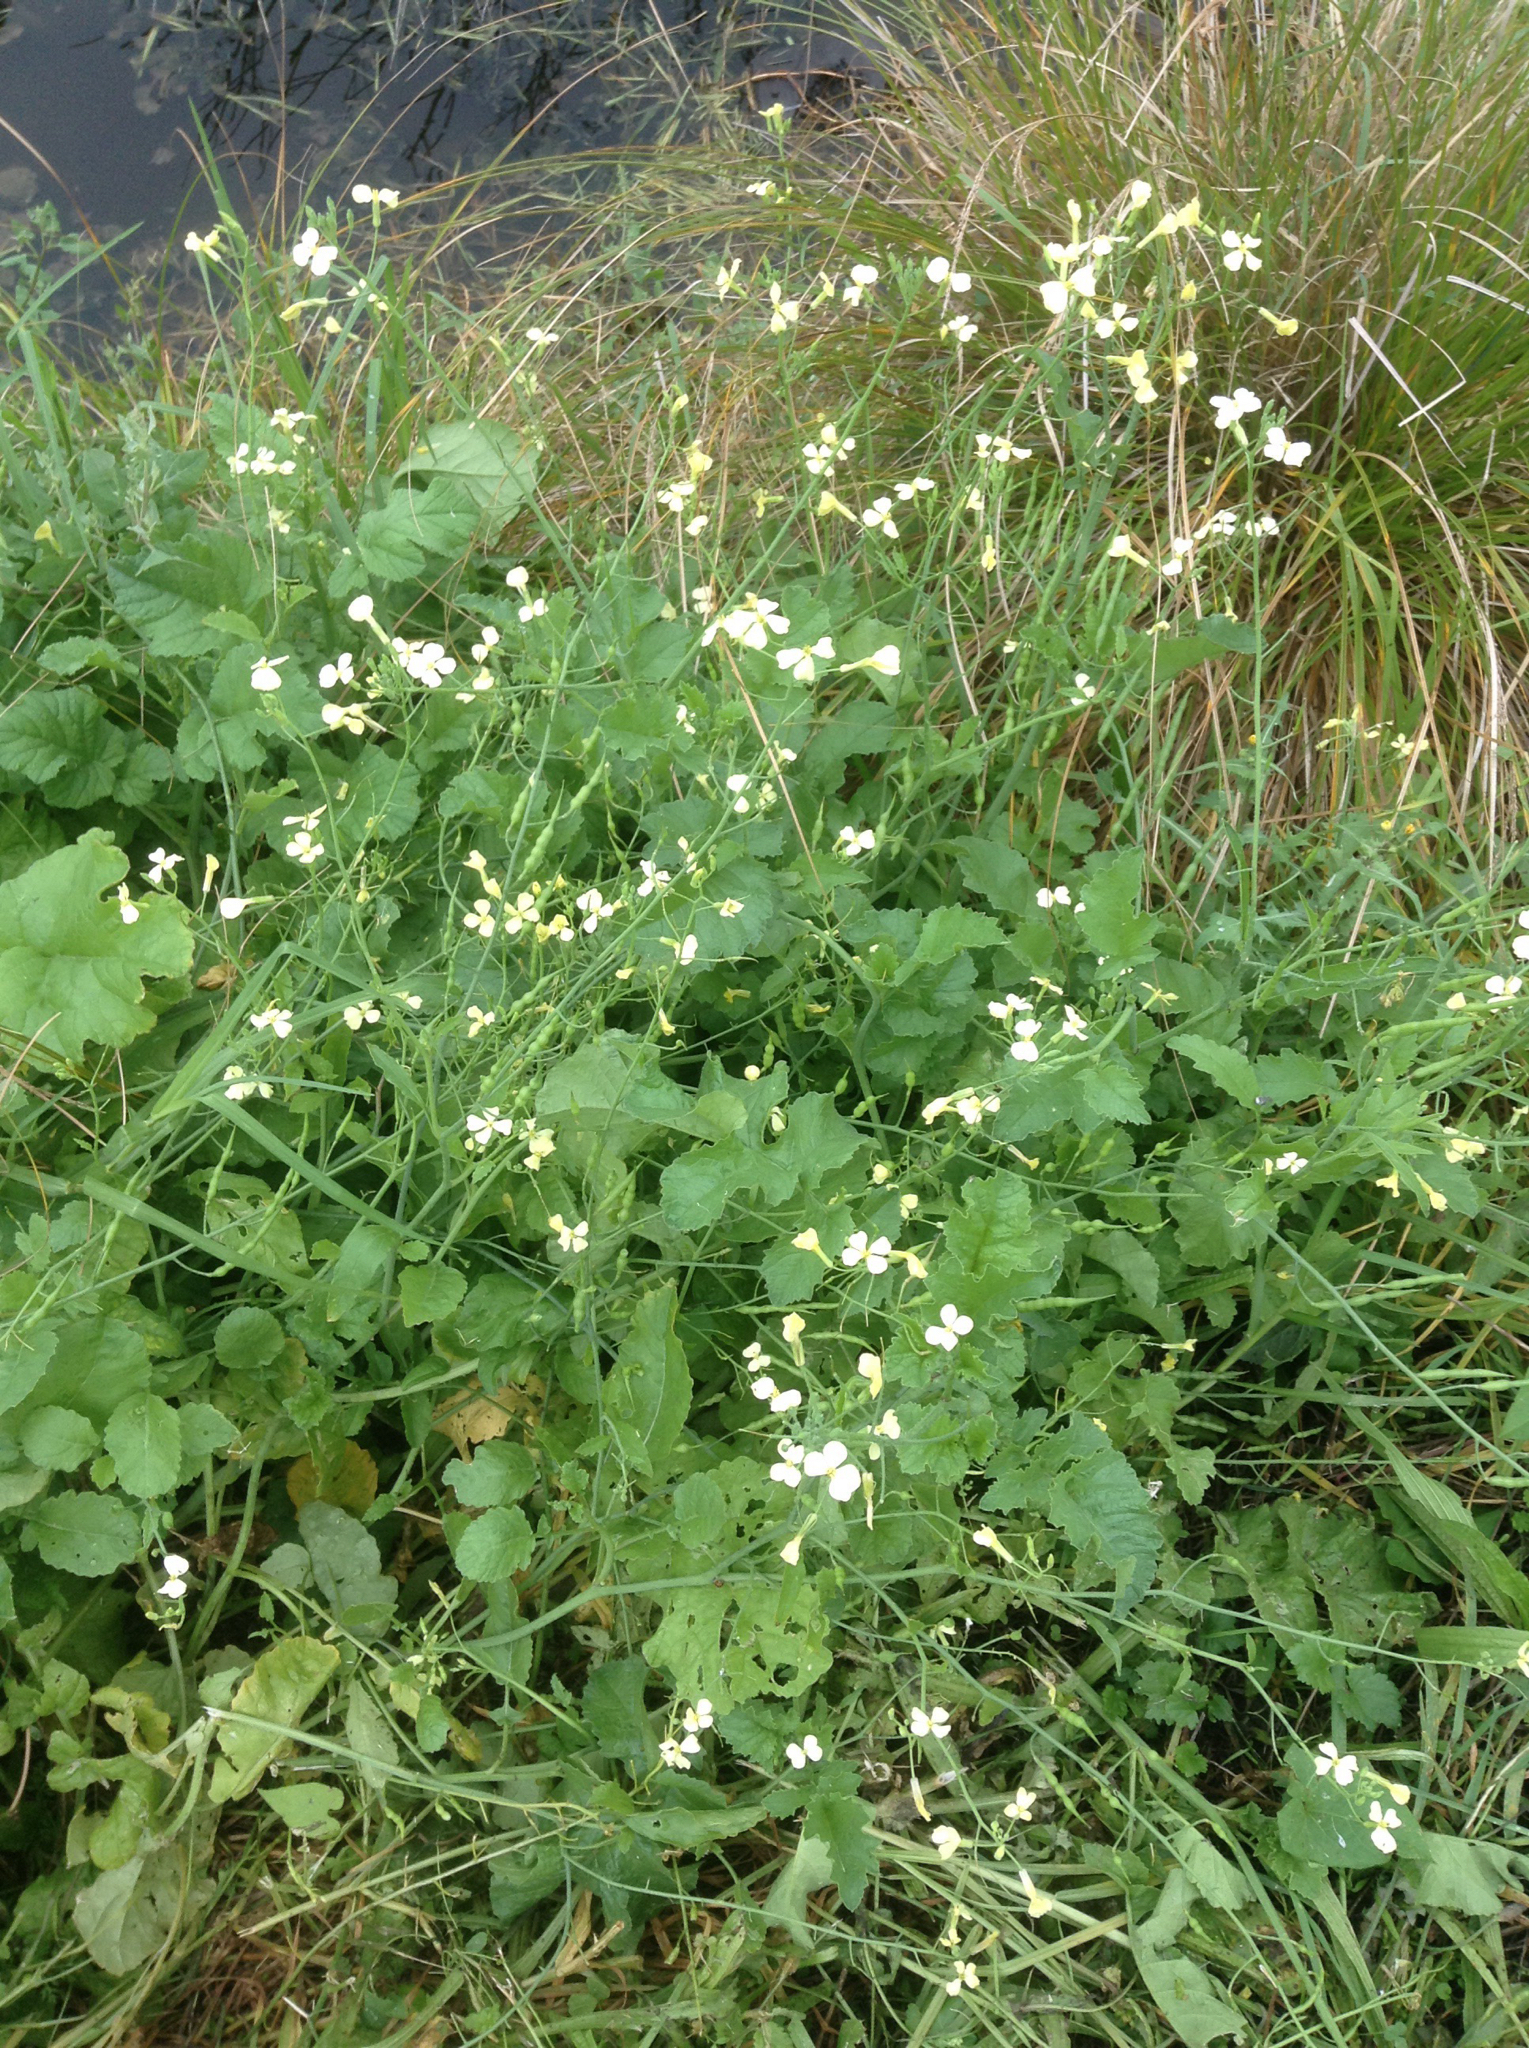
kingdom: Plantae
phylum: Tracheophyta
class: Magnoliopsida
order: Brassicales
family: Brassicaceae
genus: Raphanus
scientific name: Raphanus raphanistrum
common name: Wild radish
